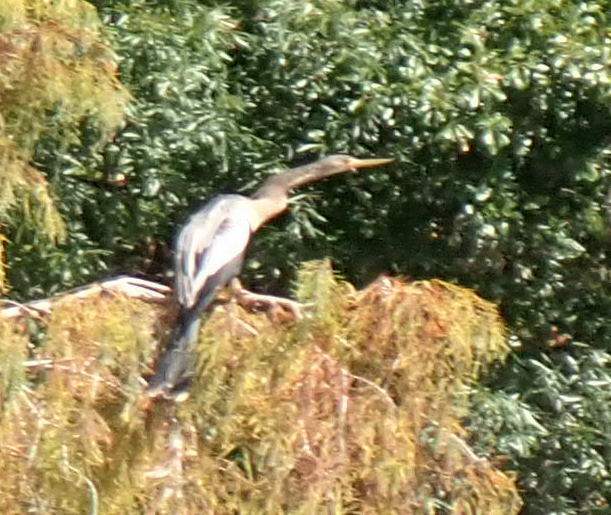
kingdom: Animalia
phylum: Chordata
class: Aves
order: Suliformes
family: Anhingidae
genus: Anhinga
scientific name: Anhinga anhinga
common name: Anhinga
